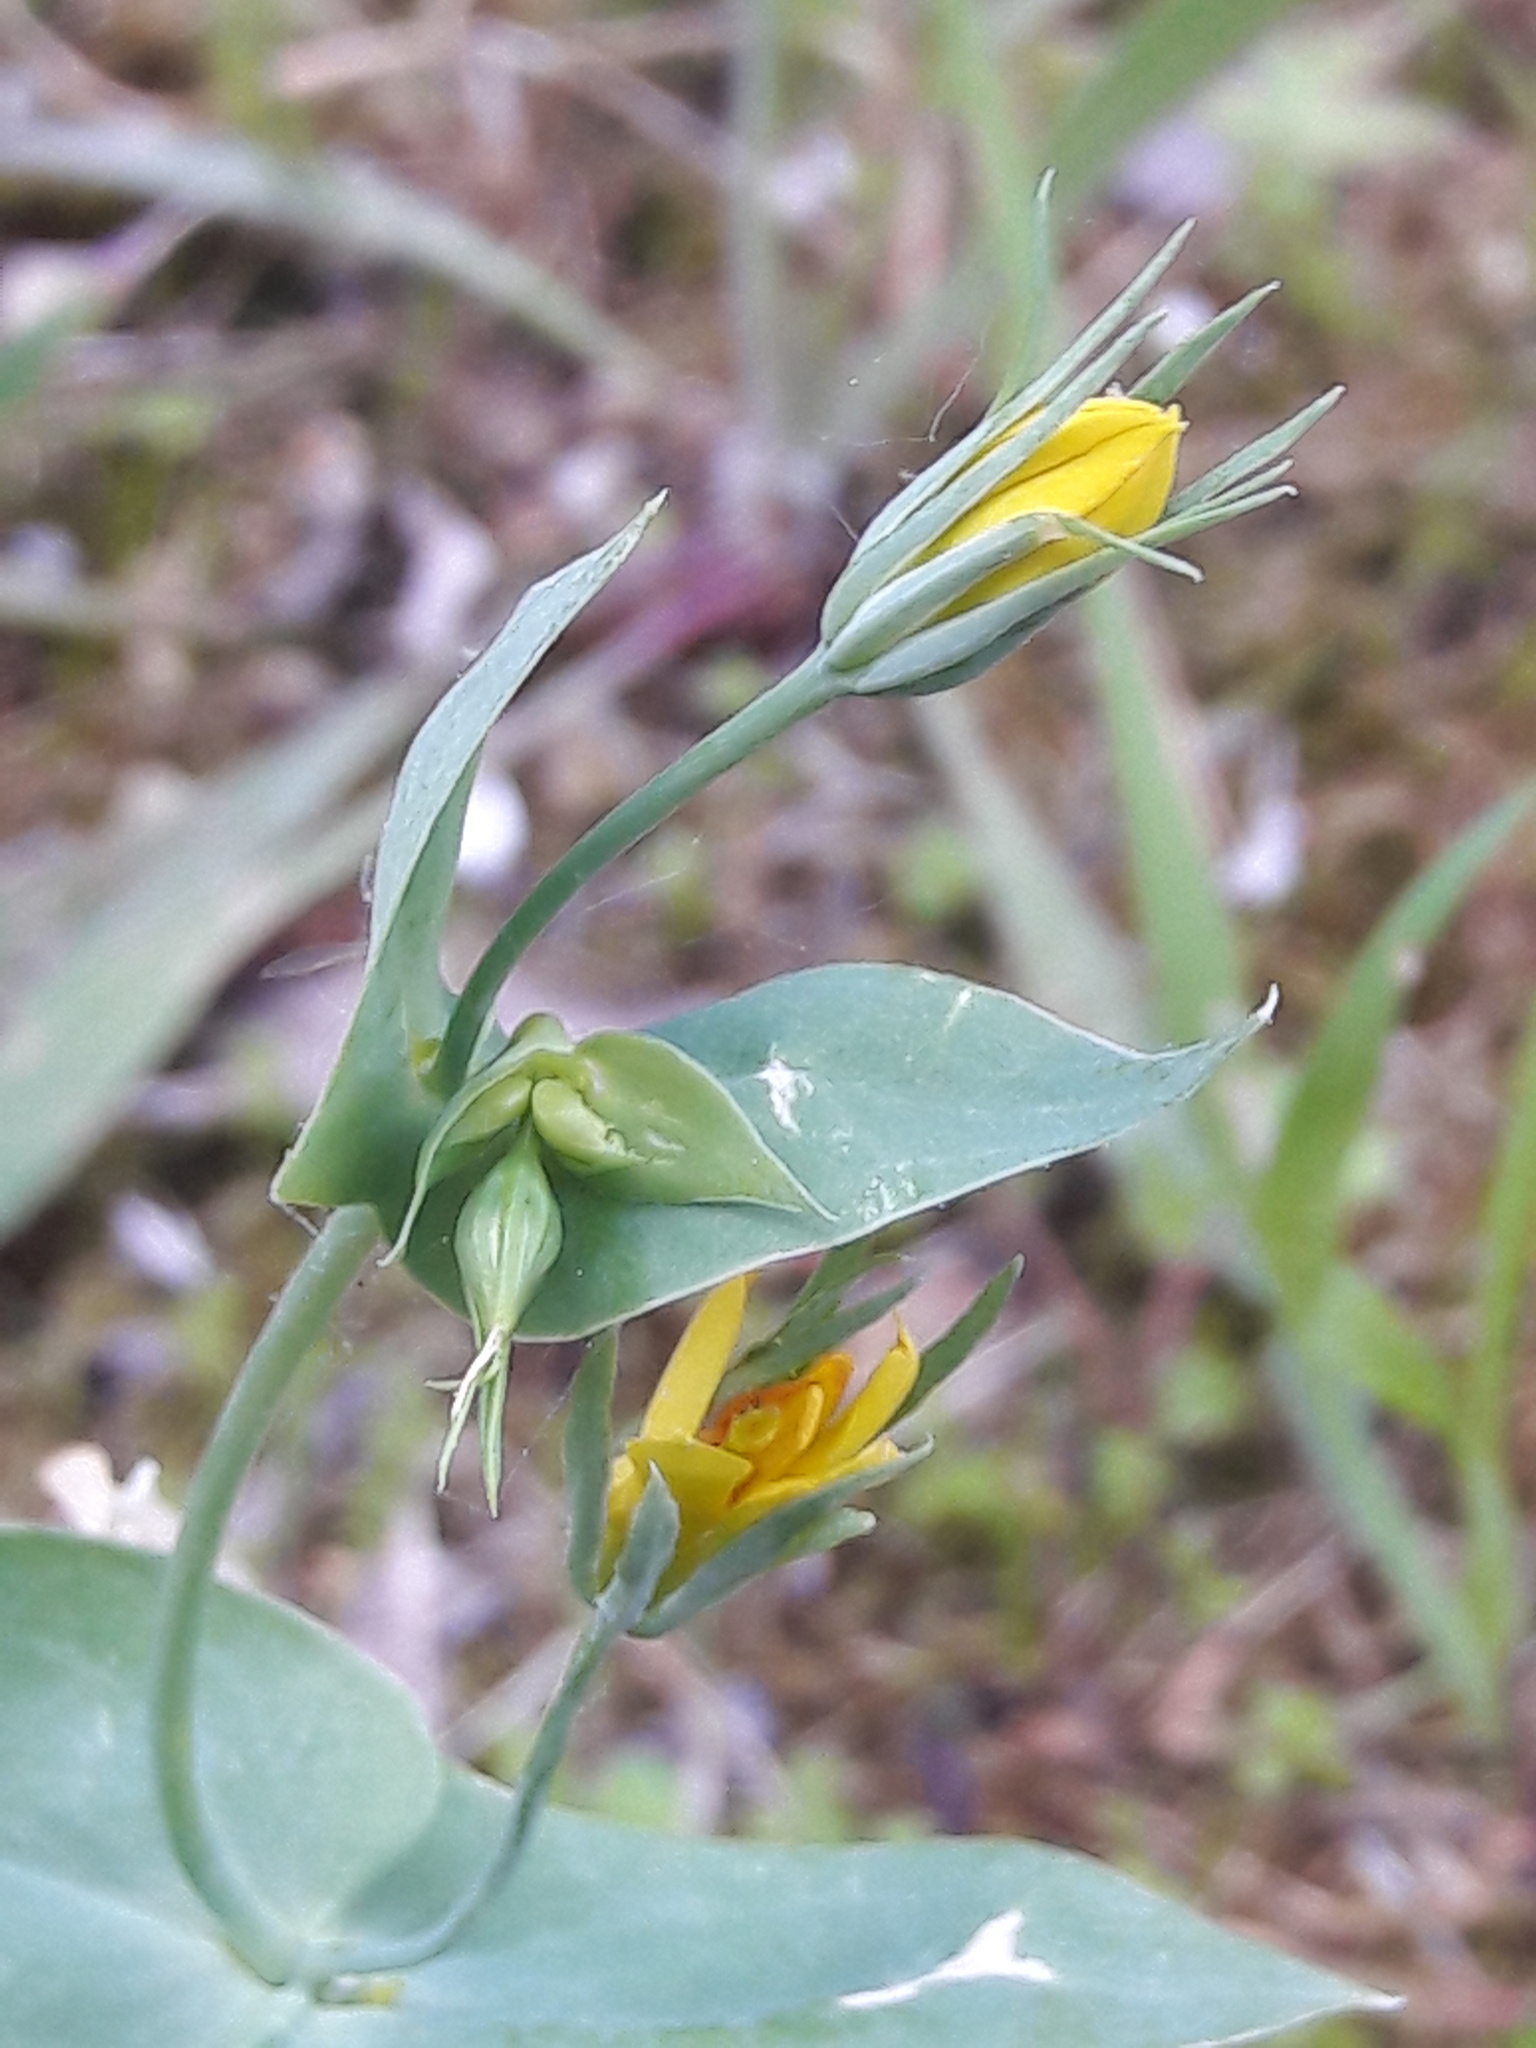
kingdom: Plantae
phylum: Tracheophyta
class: Magnoliopsida
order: Gentianales
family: Gentianaceae
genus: Blackstonia
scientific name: Blackstonia perfoliata
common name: Yellow-wort
